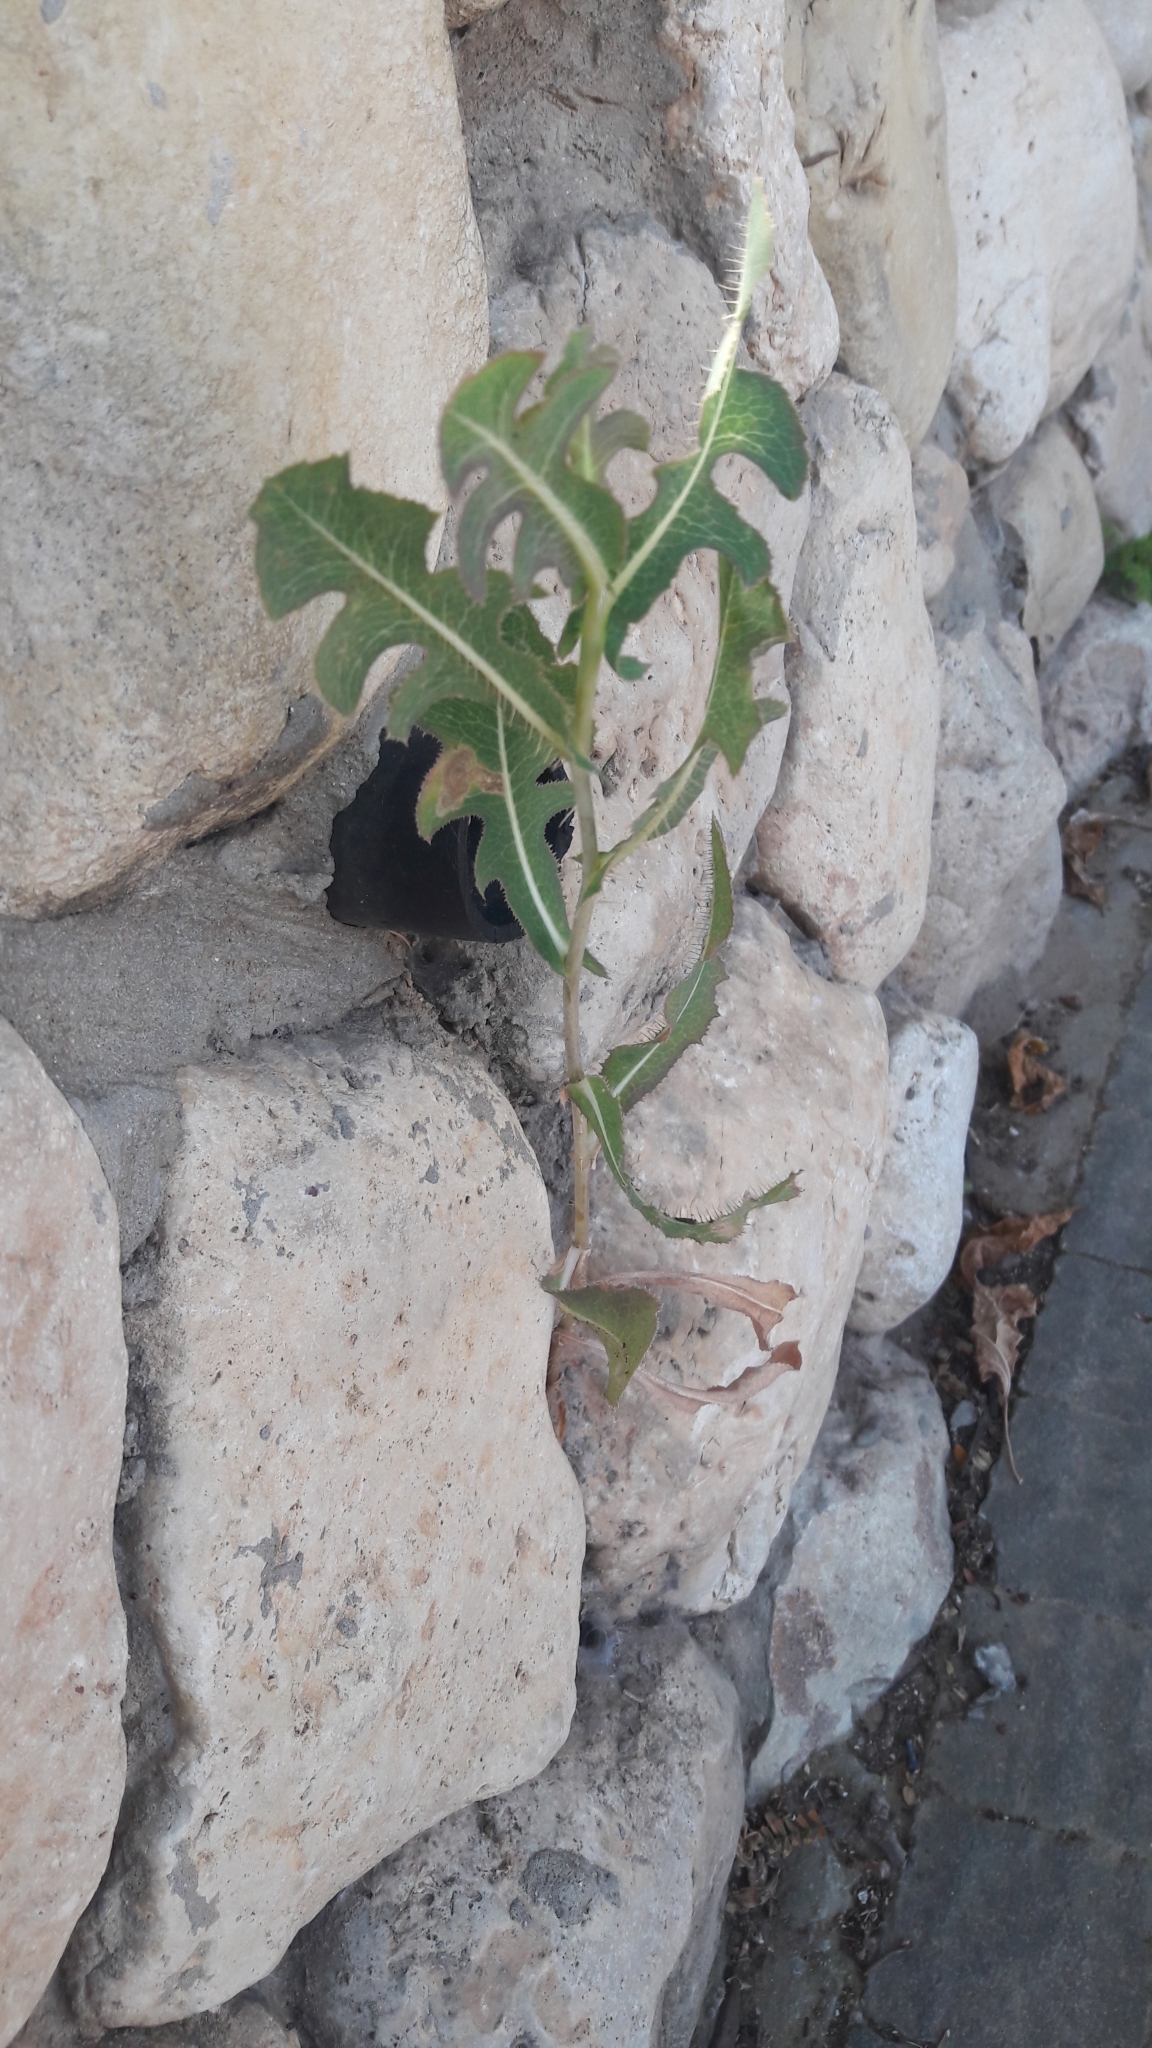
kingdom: Plantae
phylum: Tracheophyta
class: Magnoliopsida
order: Asterales
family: Asteraceae
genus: Lactuca
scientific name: Lactuca serriola
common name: Prickly lettuce
